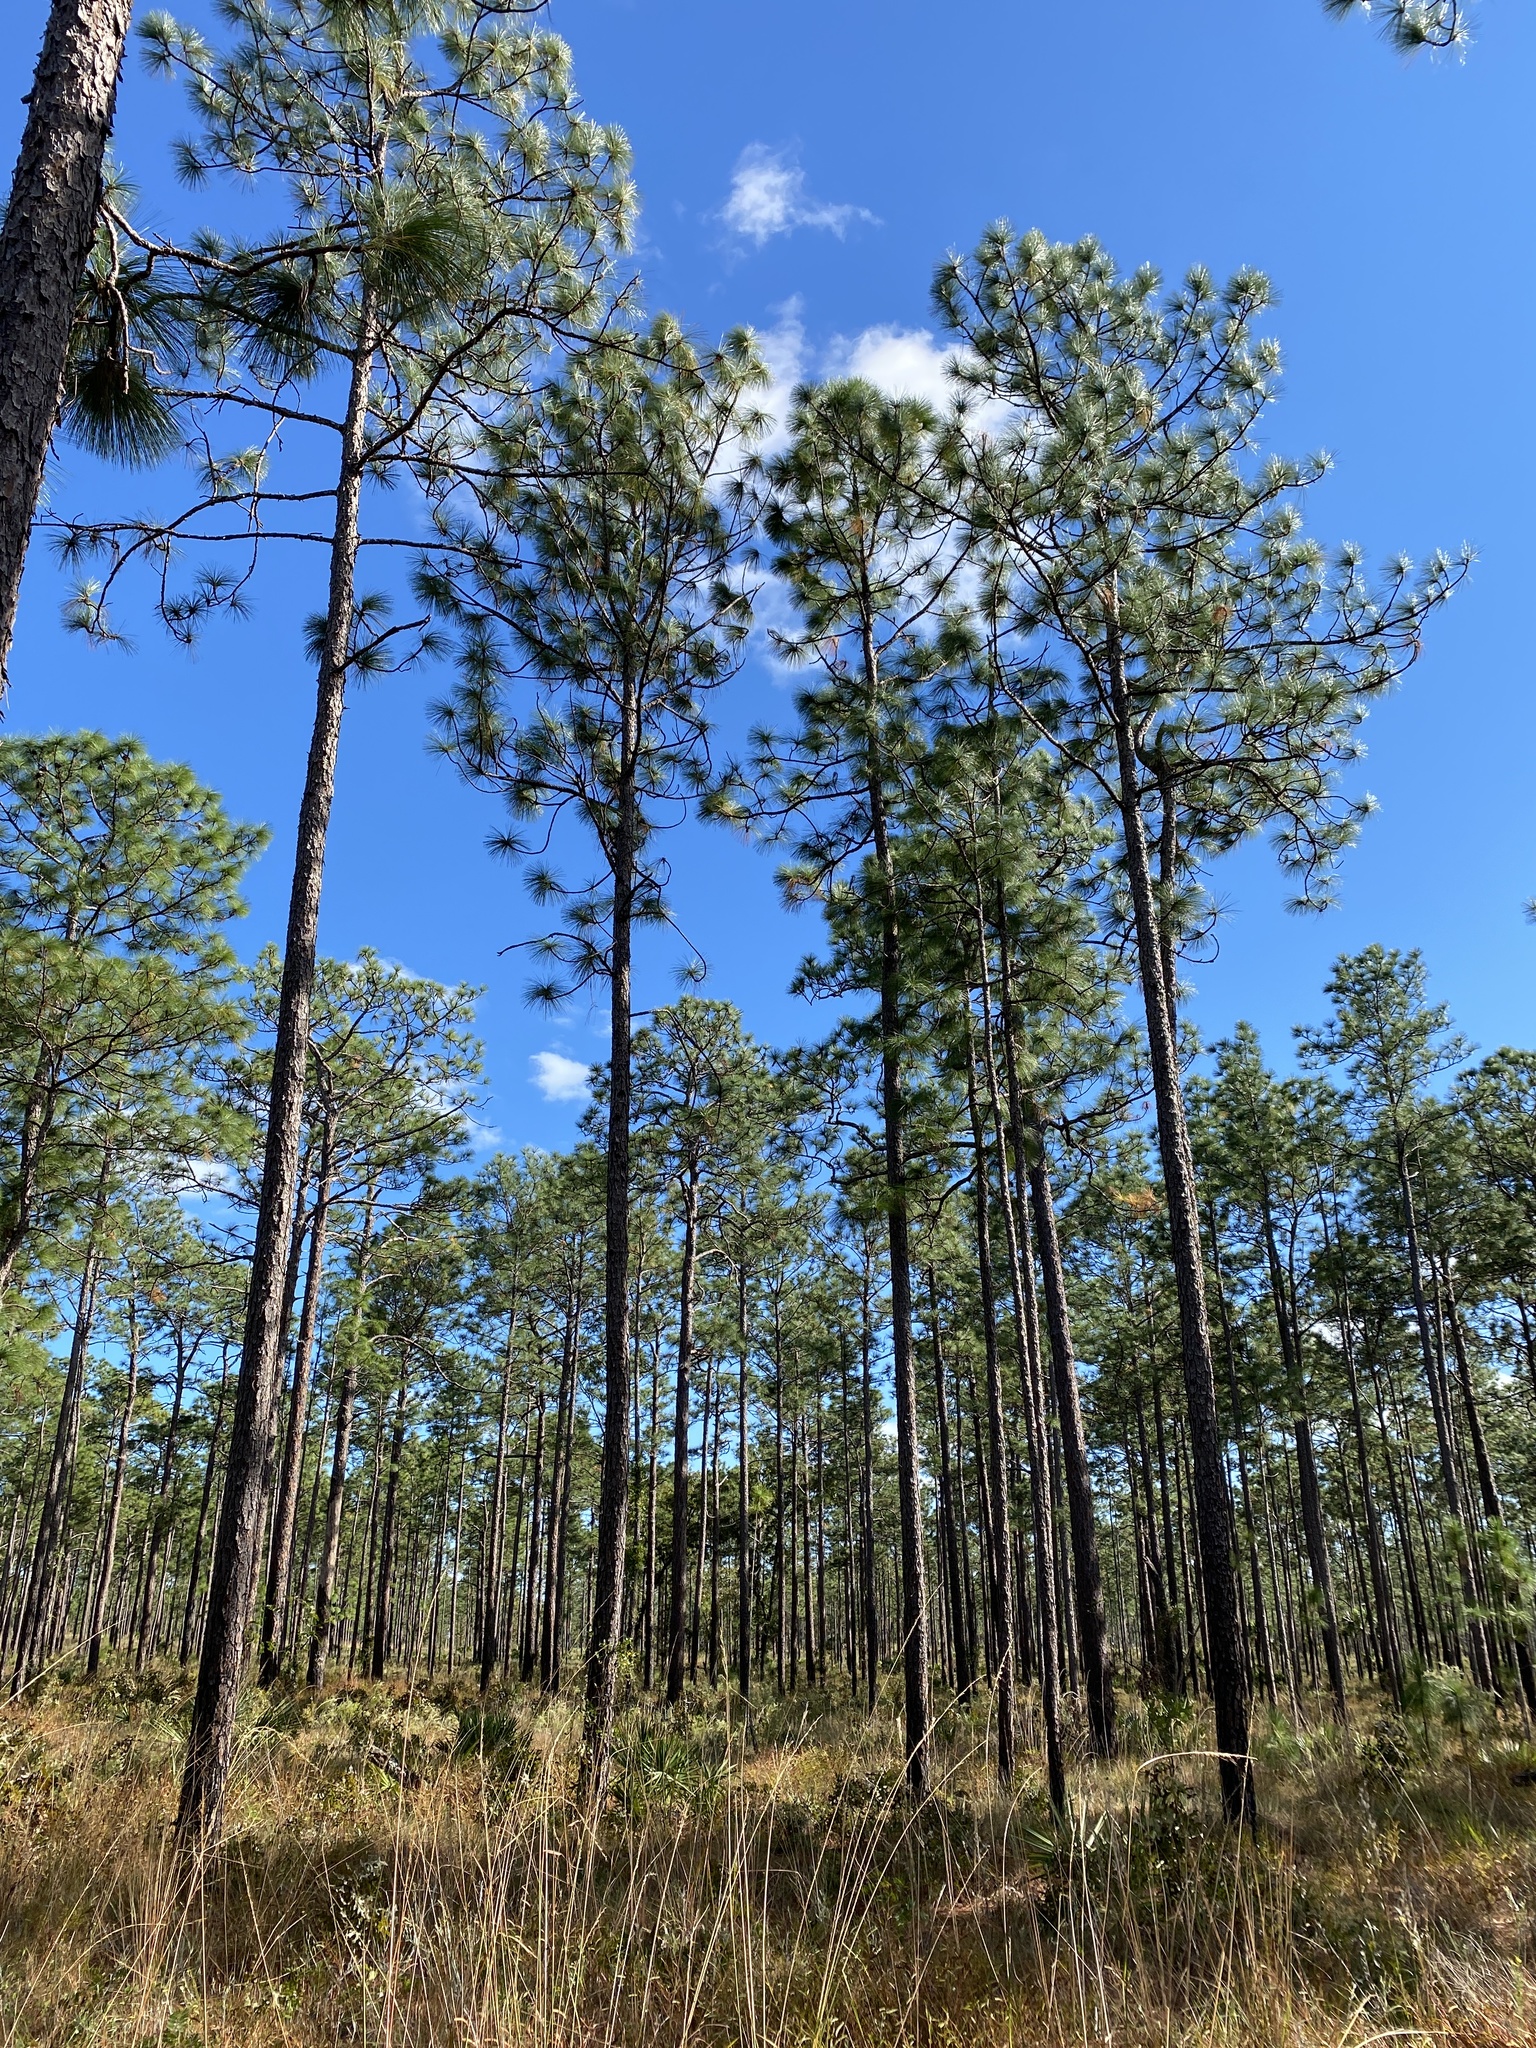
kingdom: Plantae
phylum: Tracheophyta
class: Pinopsida
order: Pinales
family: Pinaceae
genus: Pinus
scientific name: Pinus palustris
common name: Longleaf pine
